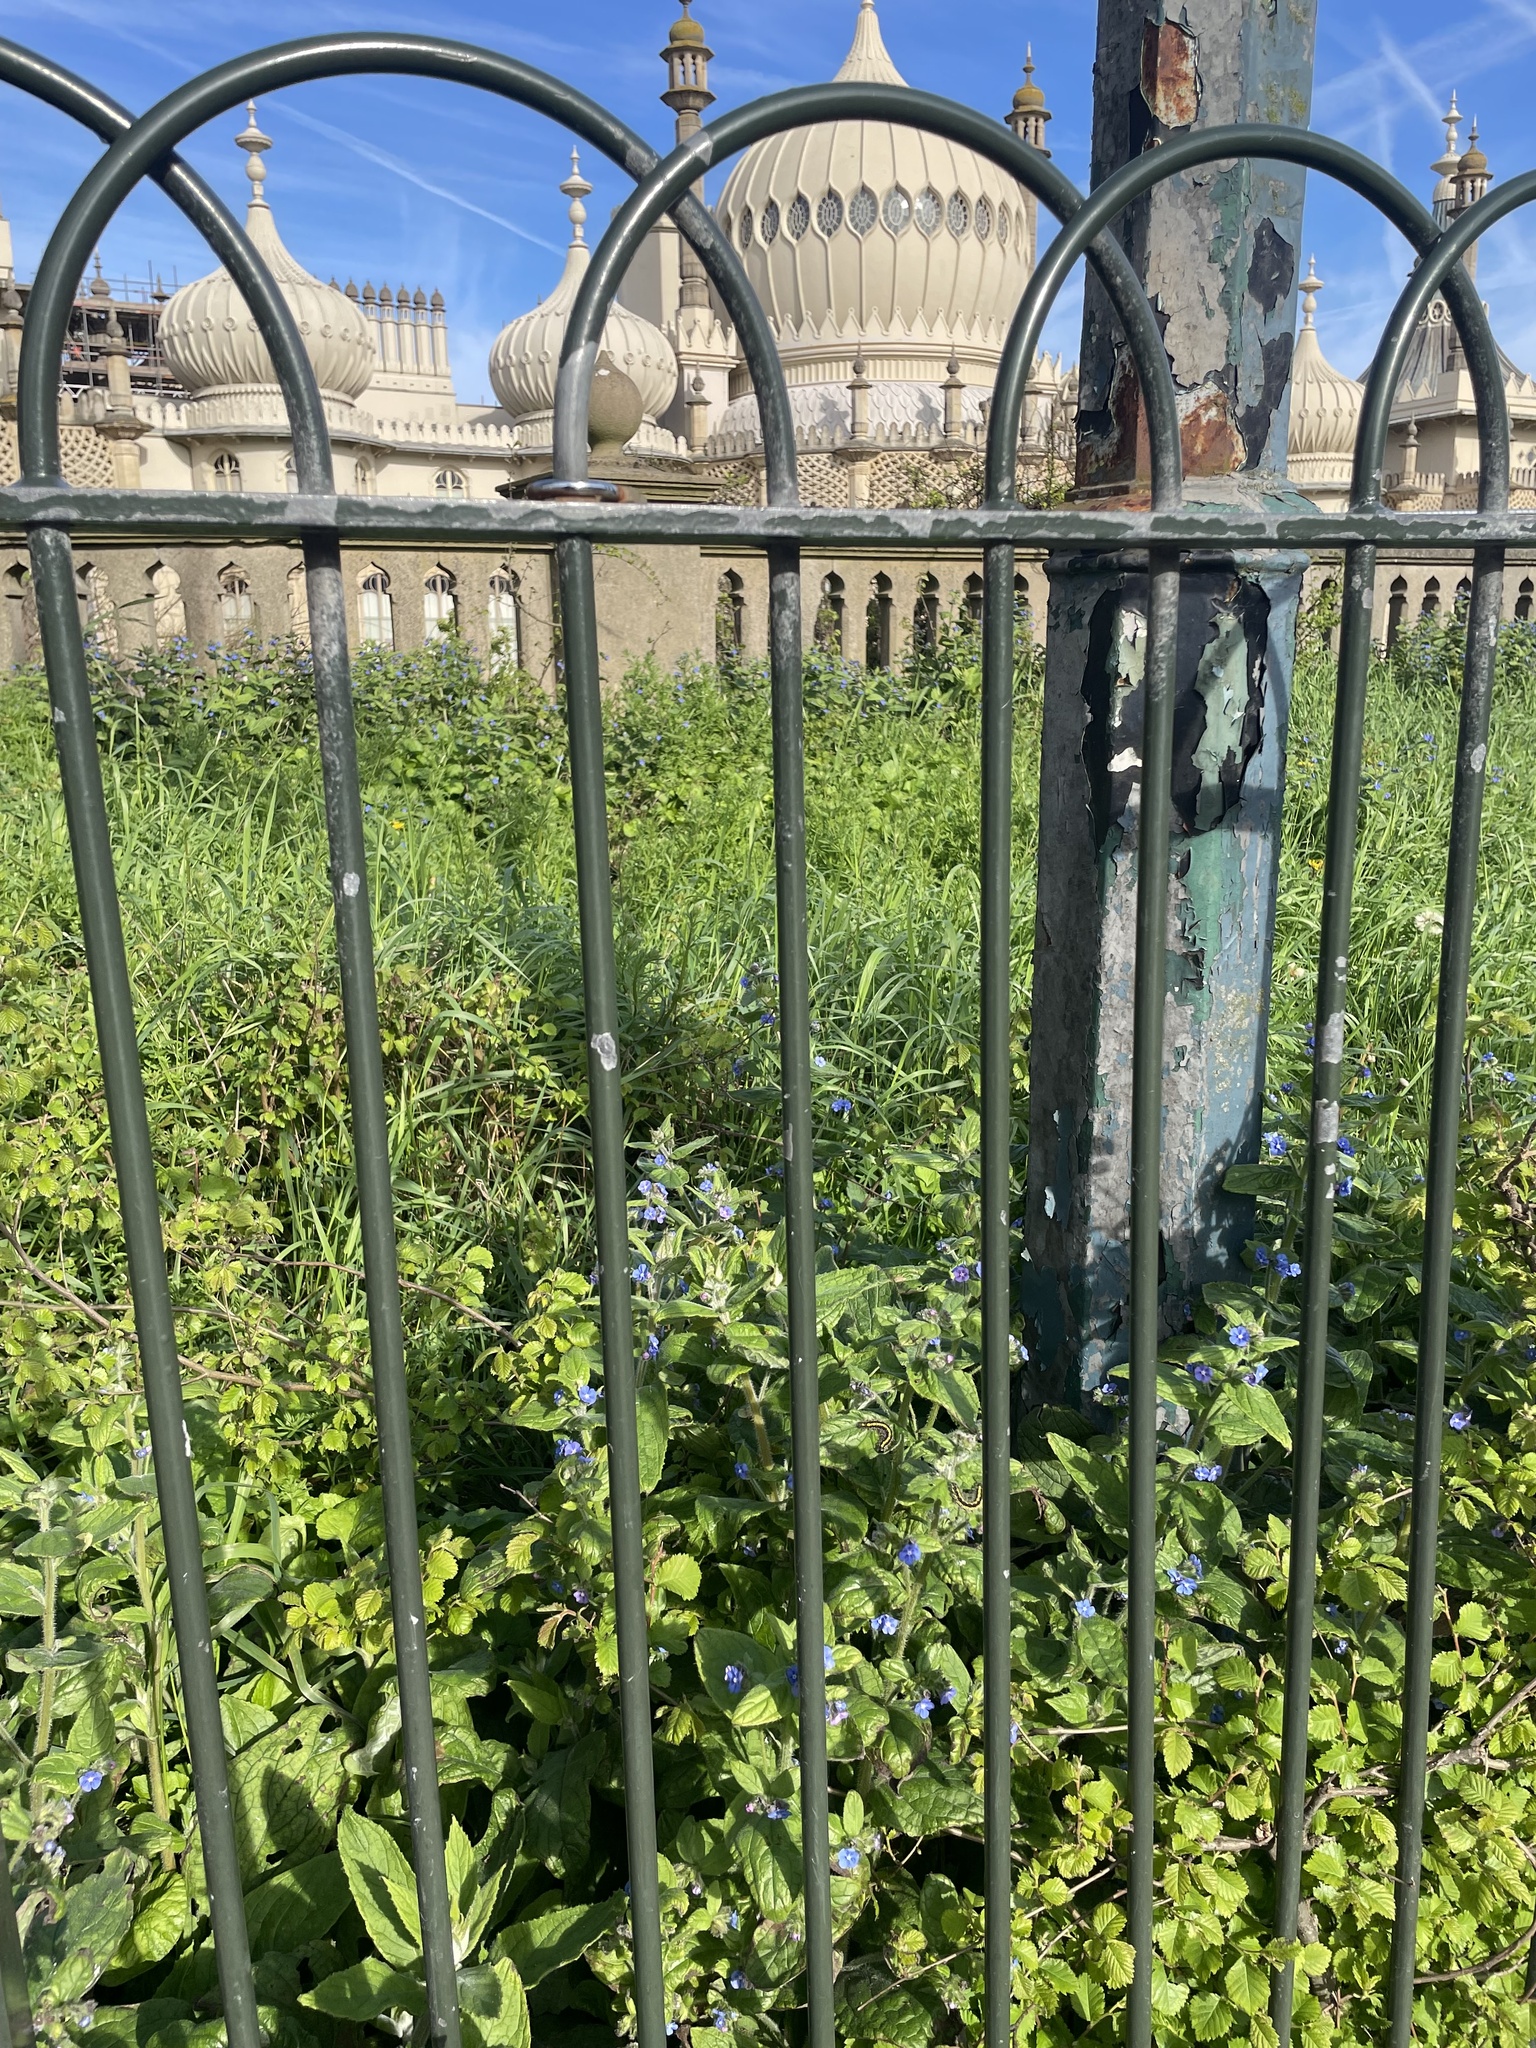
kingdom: Animalia
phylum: Arthropoda
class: Insecta
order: Lepidoptera
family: Erebidae
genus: Callimorpha
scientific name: Callimorpha dominula
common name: Scarlet tiger
